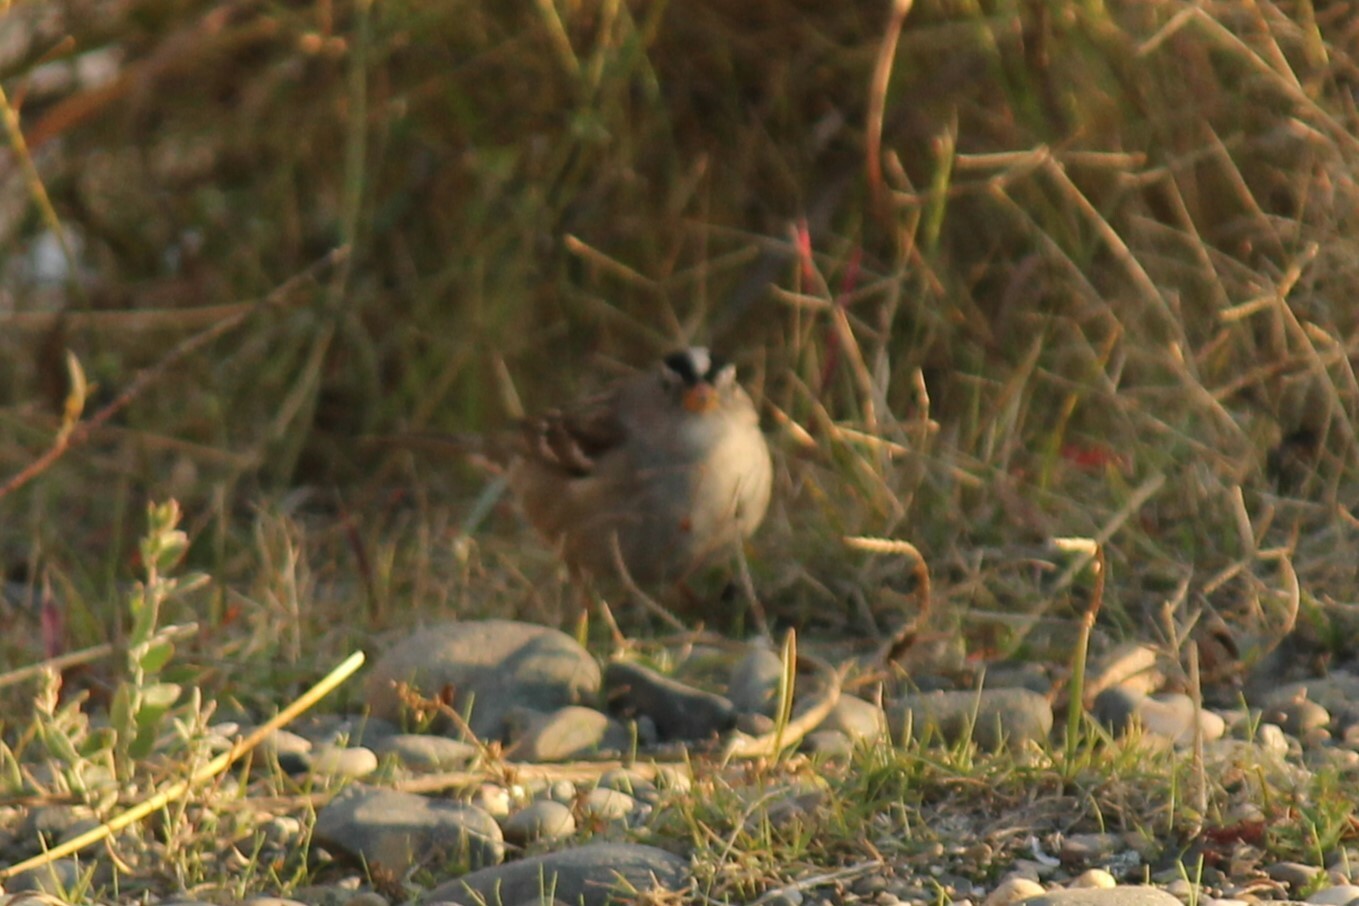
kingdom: Animalia
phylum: Chordata
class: Aves
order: Passeriformes
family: Passerellidae
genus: Zonotrichia
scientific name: Zonotrichia leucophrys
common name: White-crowned sparrow
